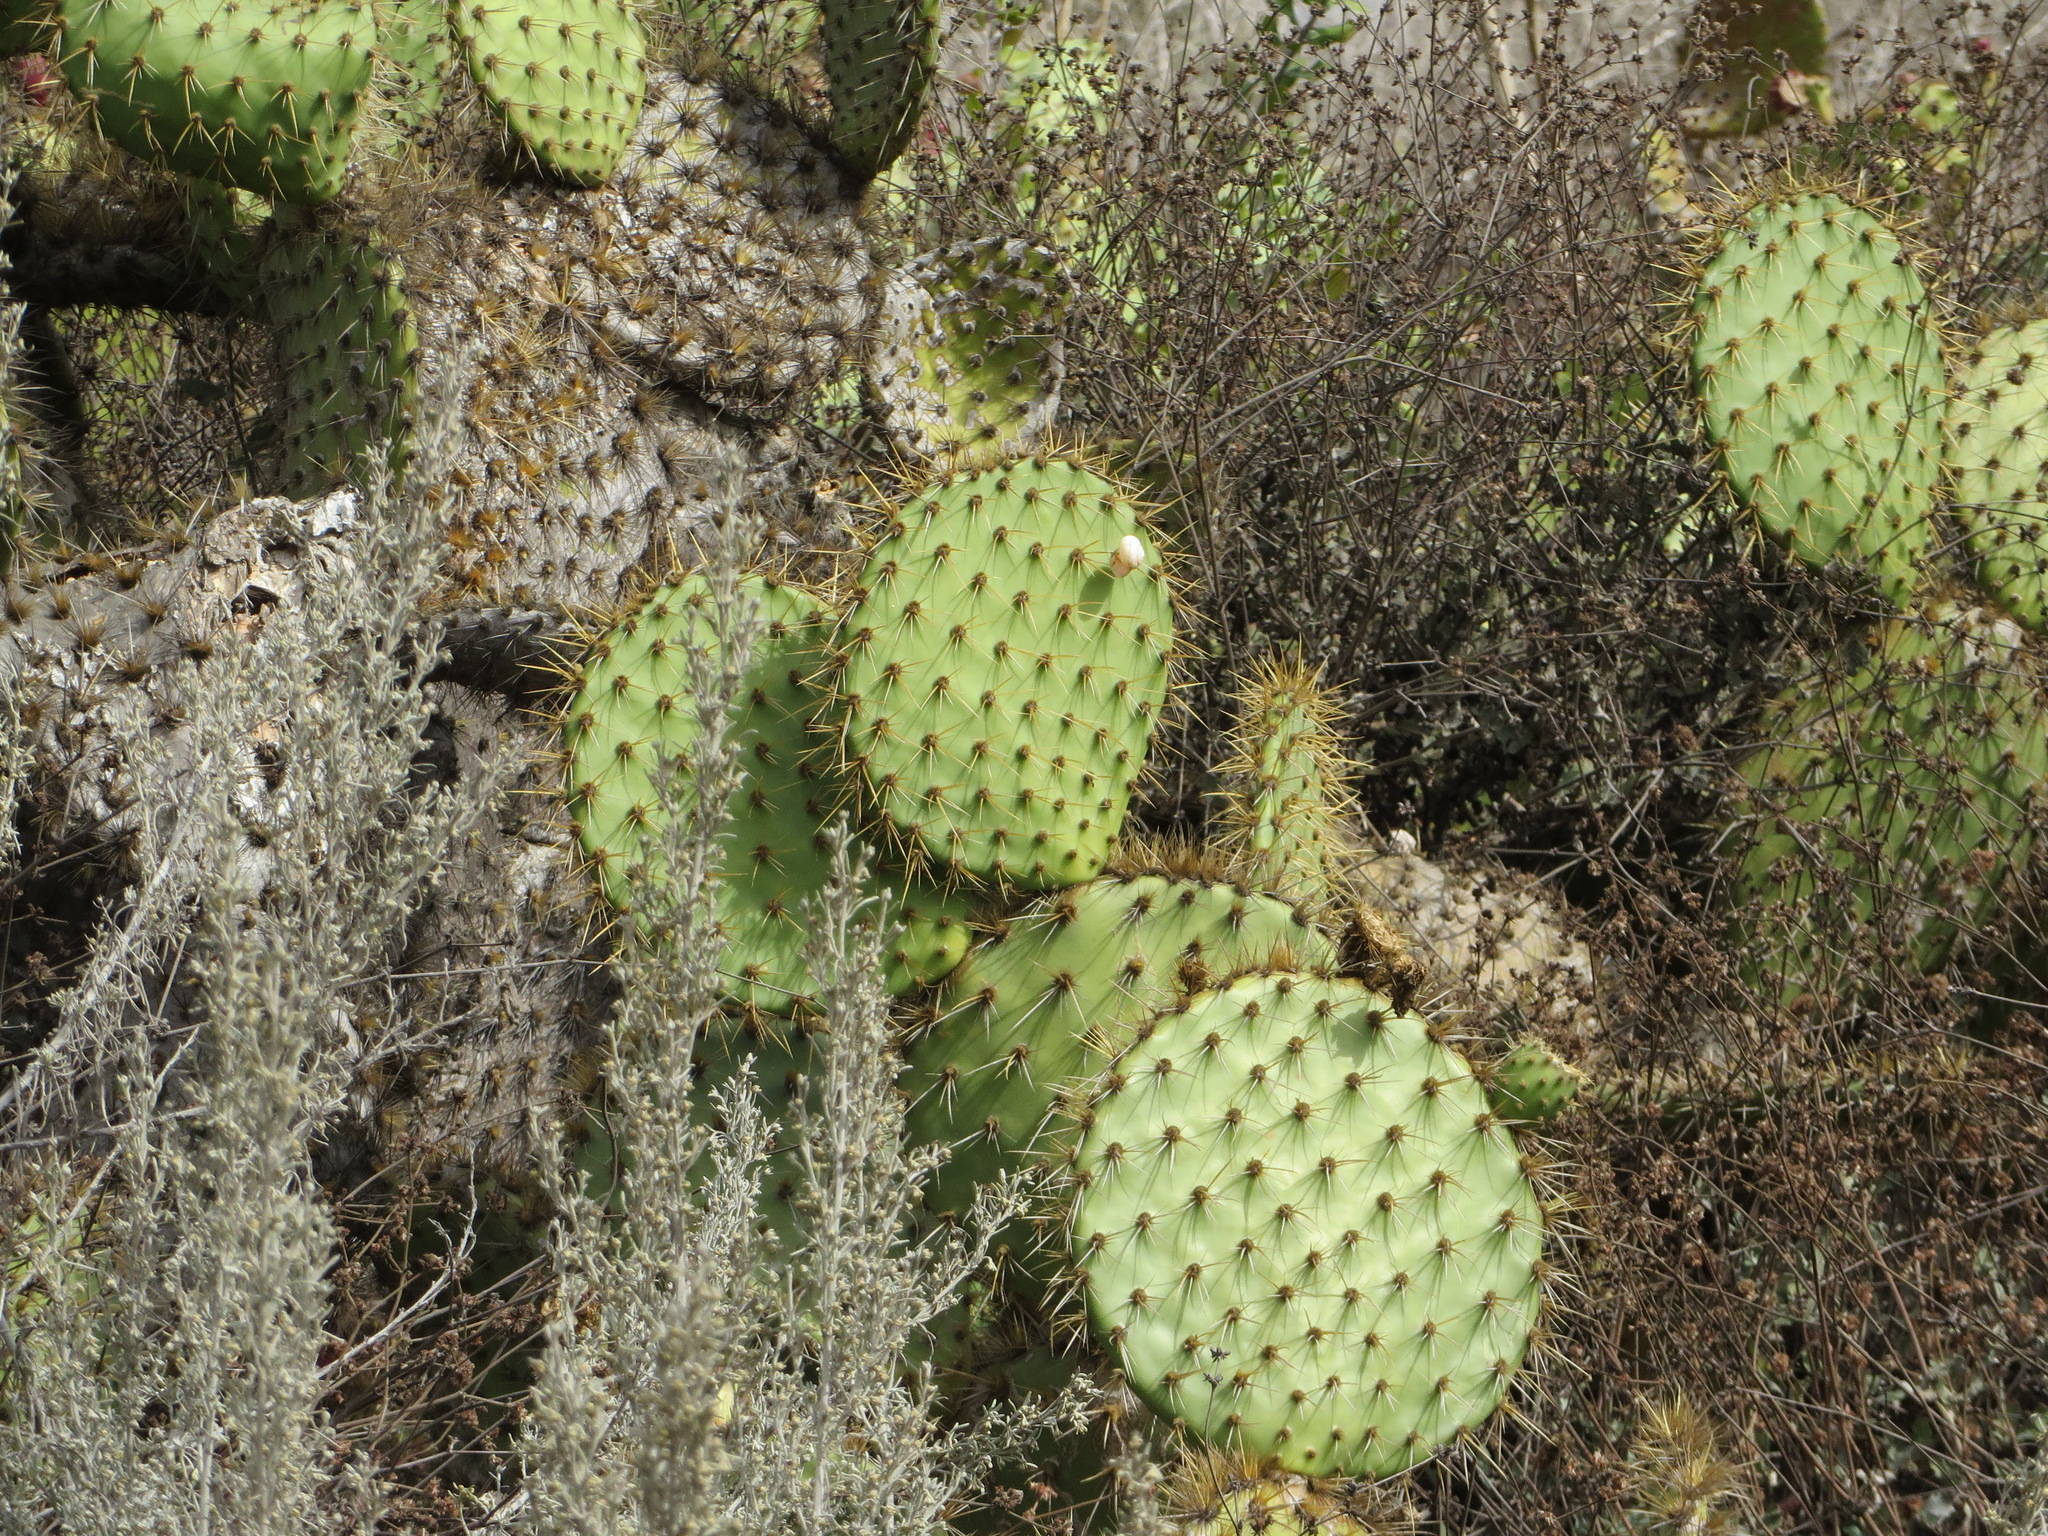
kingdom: Plantae
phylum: Tracheophyta
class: Magnoliopsida
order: Caryophyllales
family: Cactaceae
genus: Opuntia
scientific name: Opuntia oricola
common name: Chaparral prickly-pear
